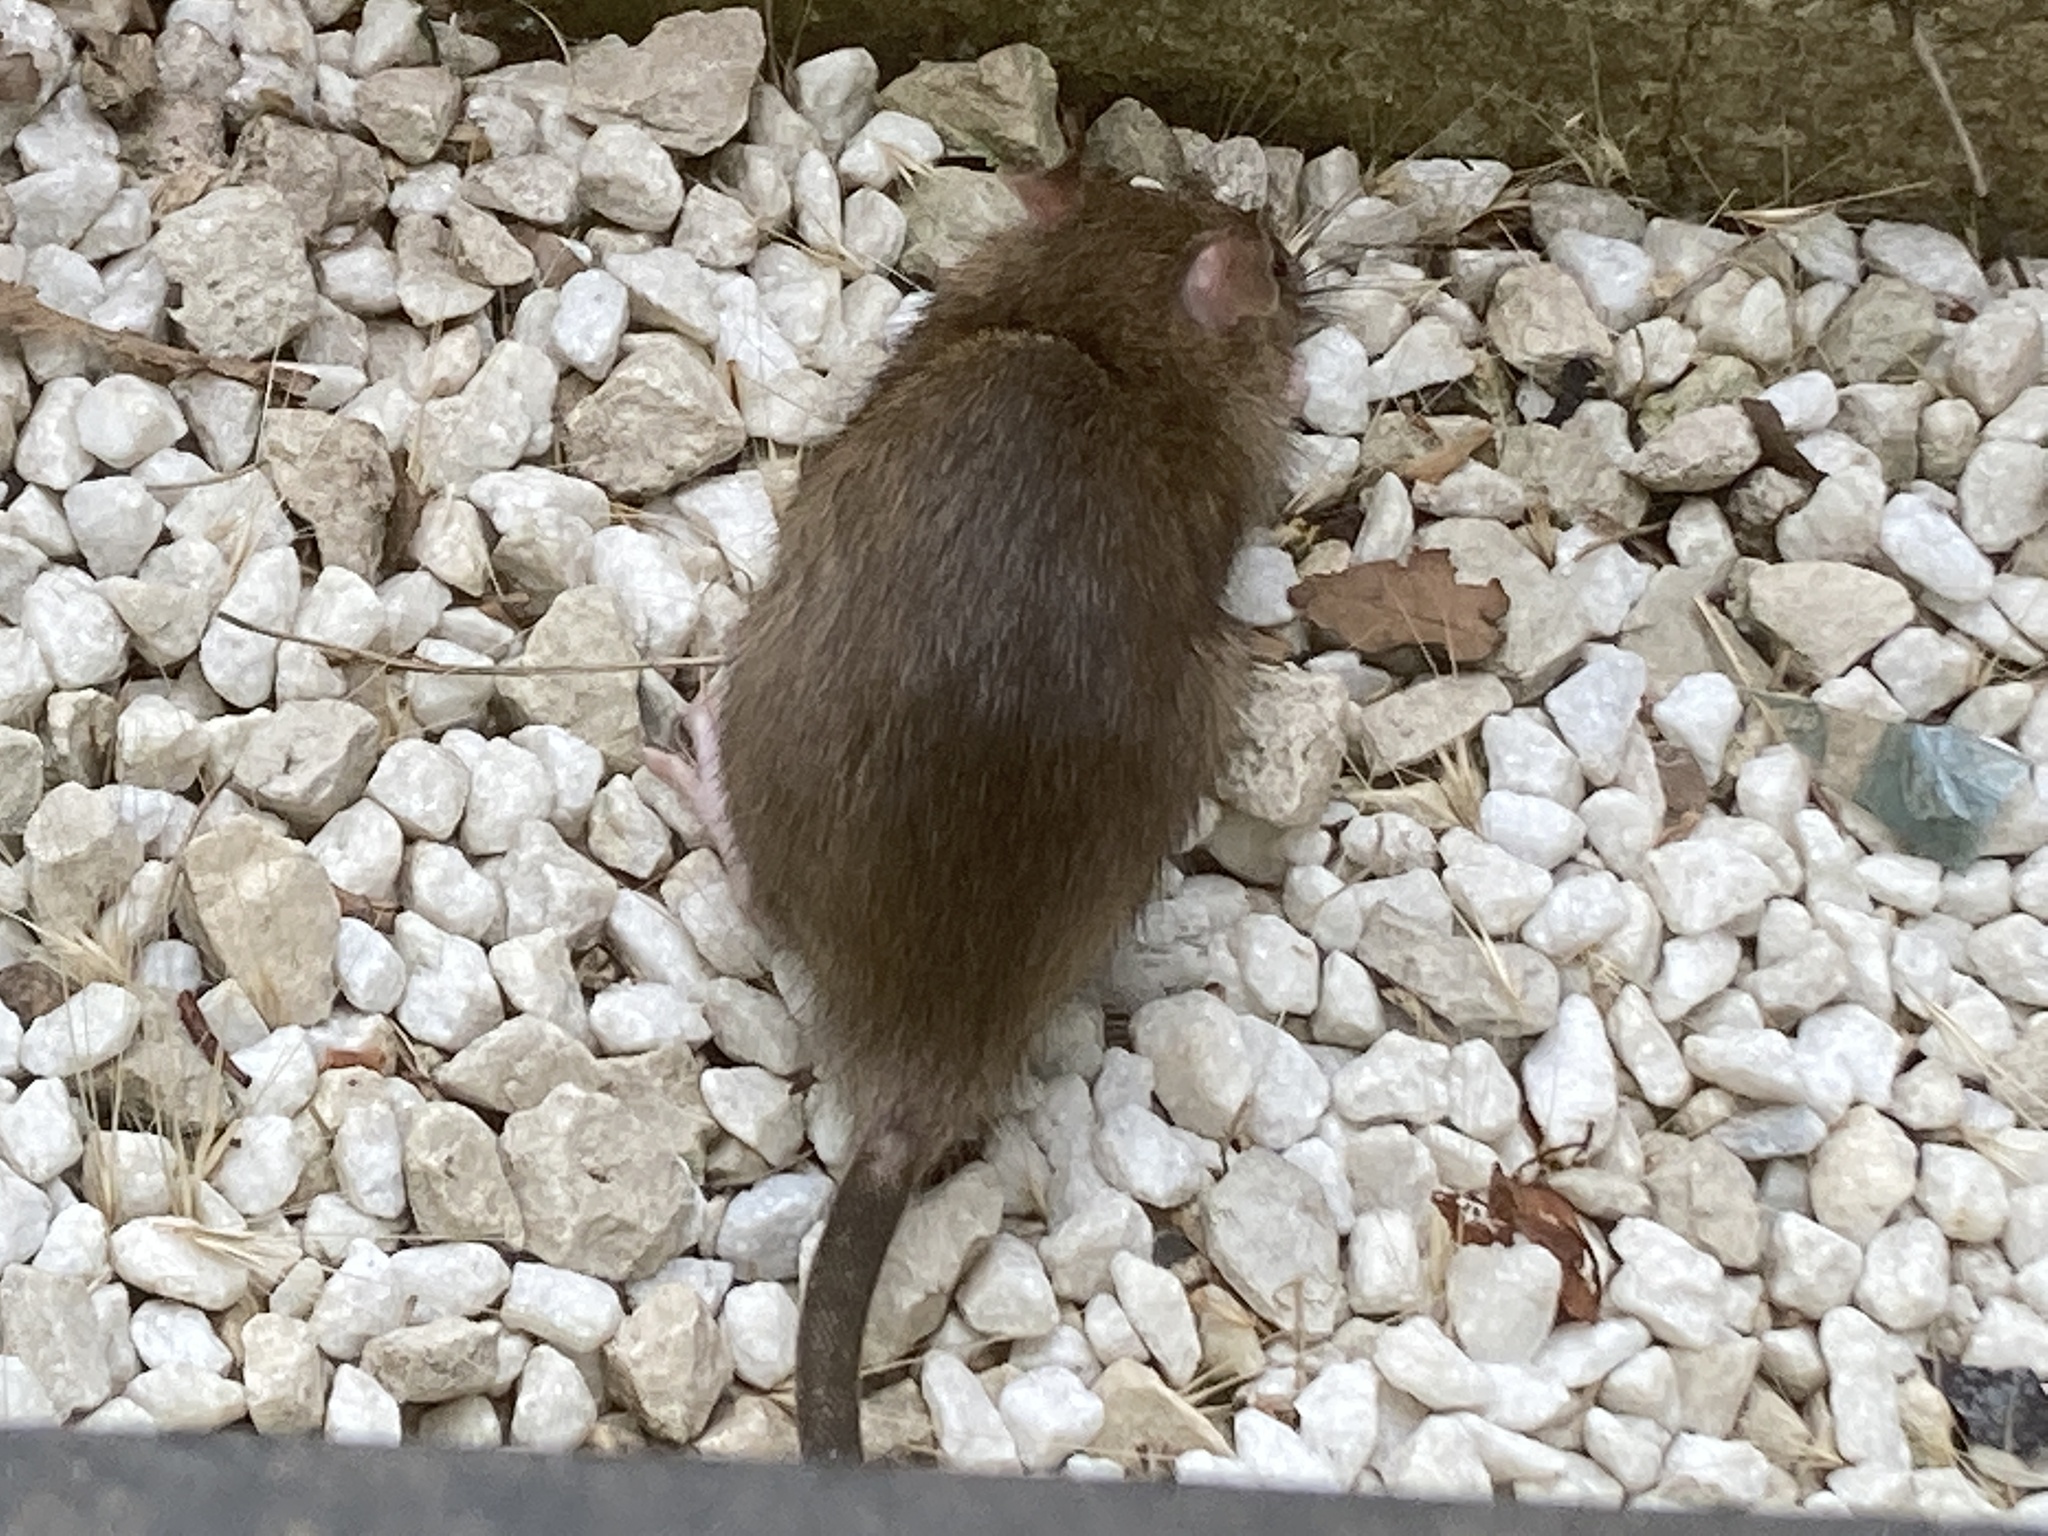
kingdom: Animalia
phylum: Chordata
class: Mammalia
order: Rodentia
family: Muridae
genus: Rattus
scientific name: Rattus norvegicus
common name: Brown rat
